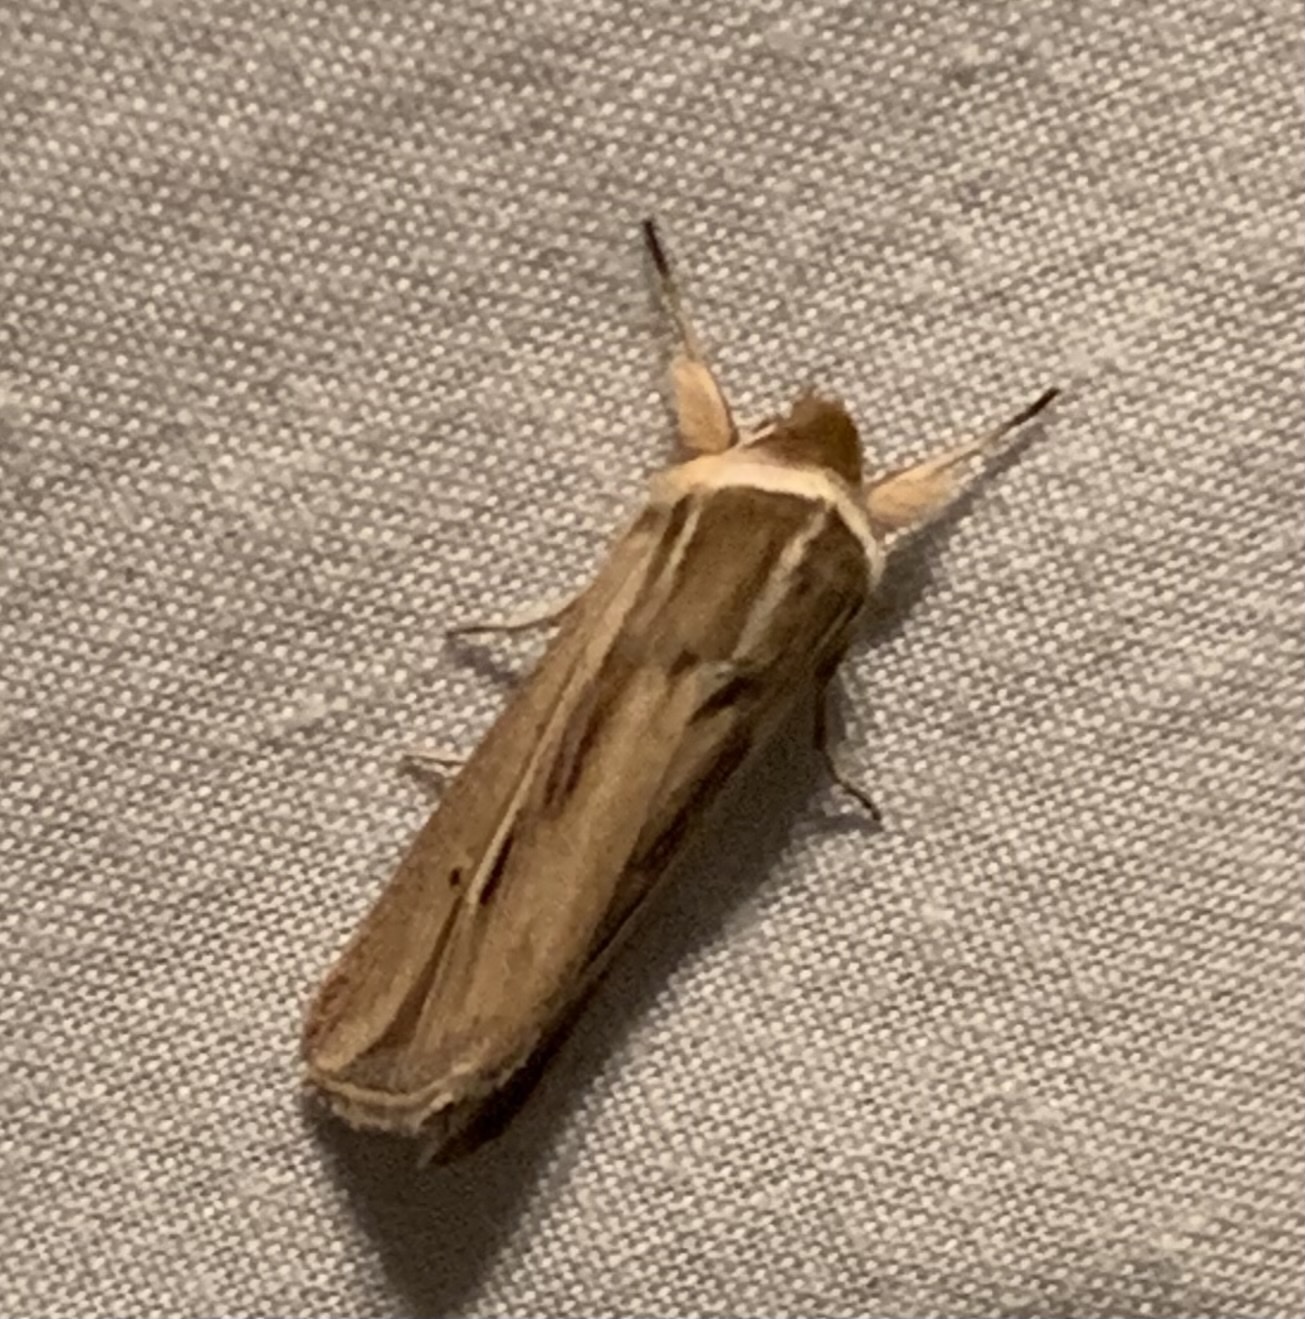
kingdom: Animalia
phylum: Arthropoda
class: Insecta
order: Lepidoptera
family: Noctuidae
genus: Dargida
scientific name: Dargida diffusa
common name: Wheat head armyworm
